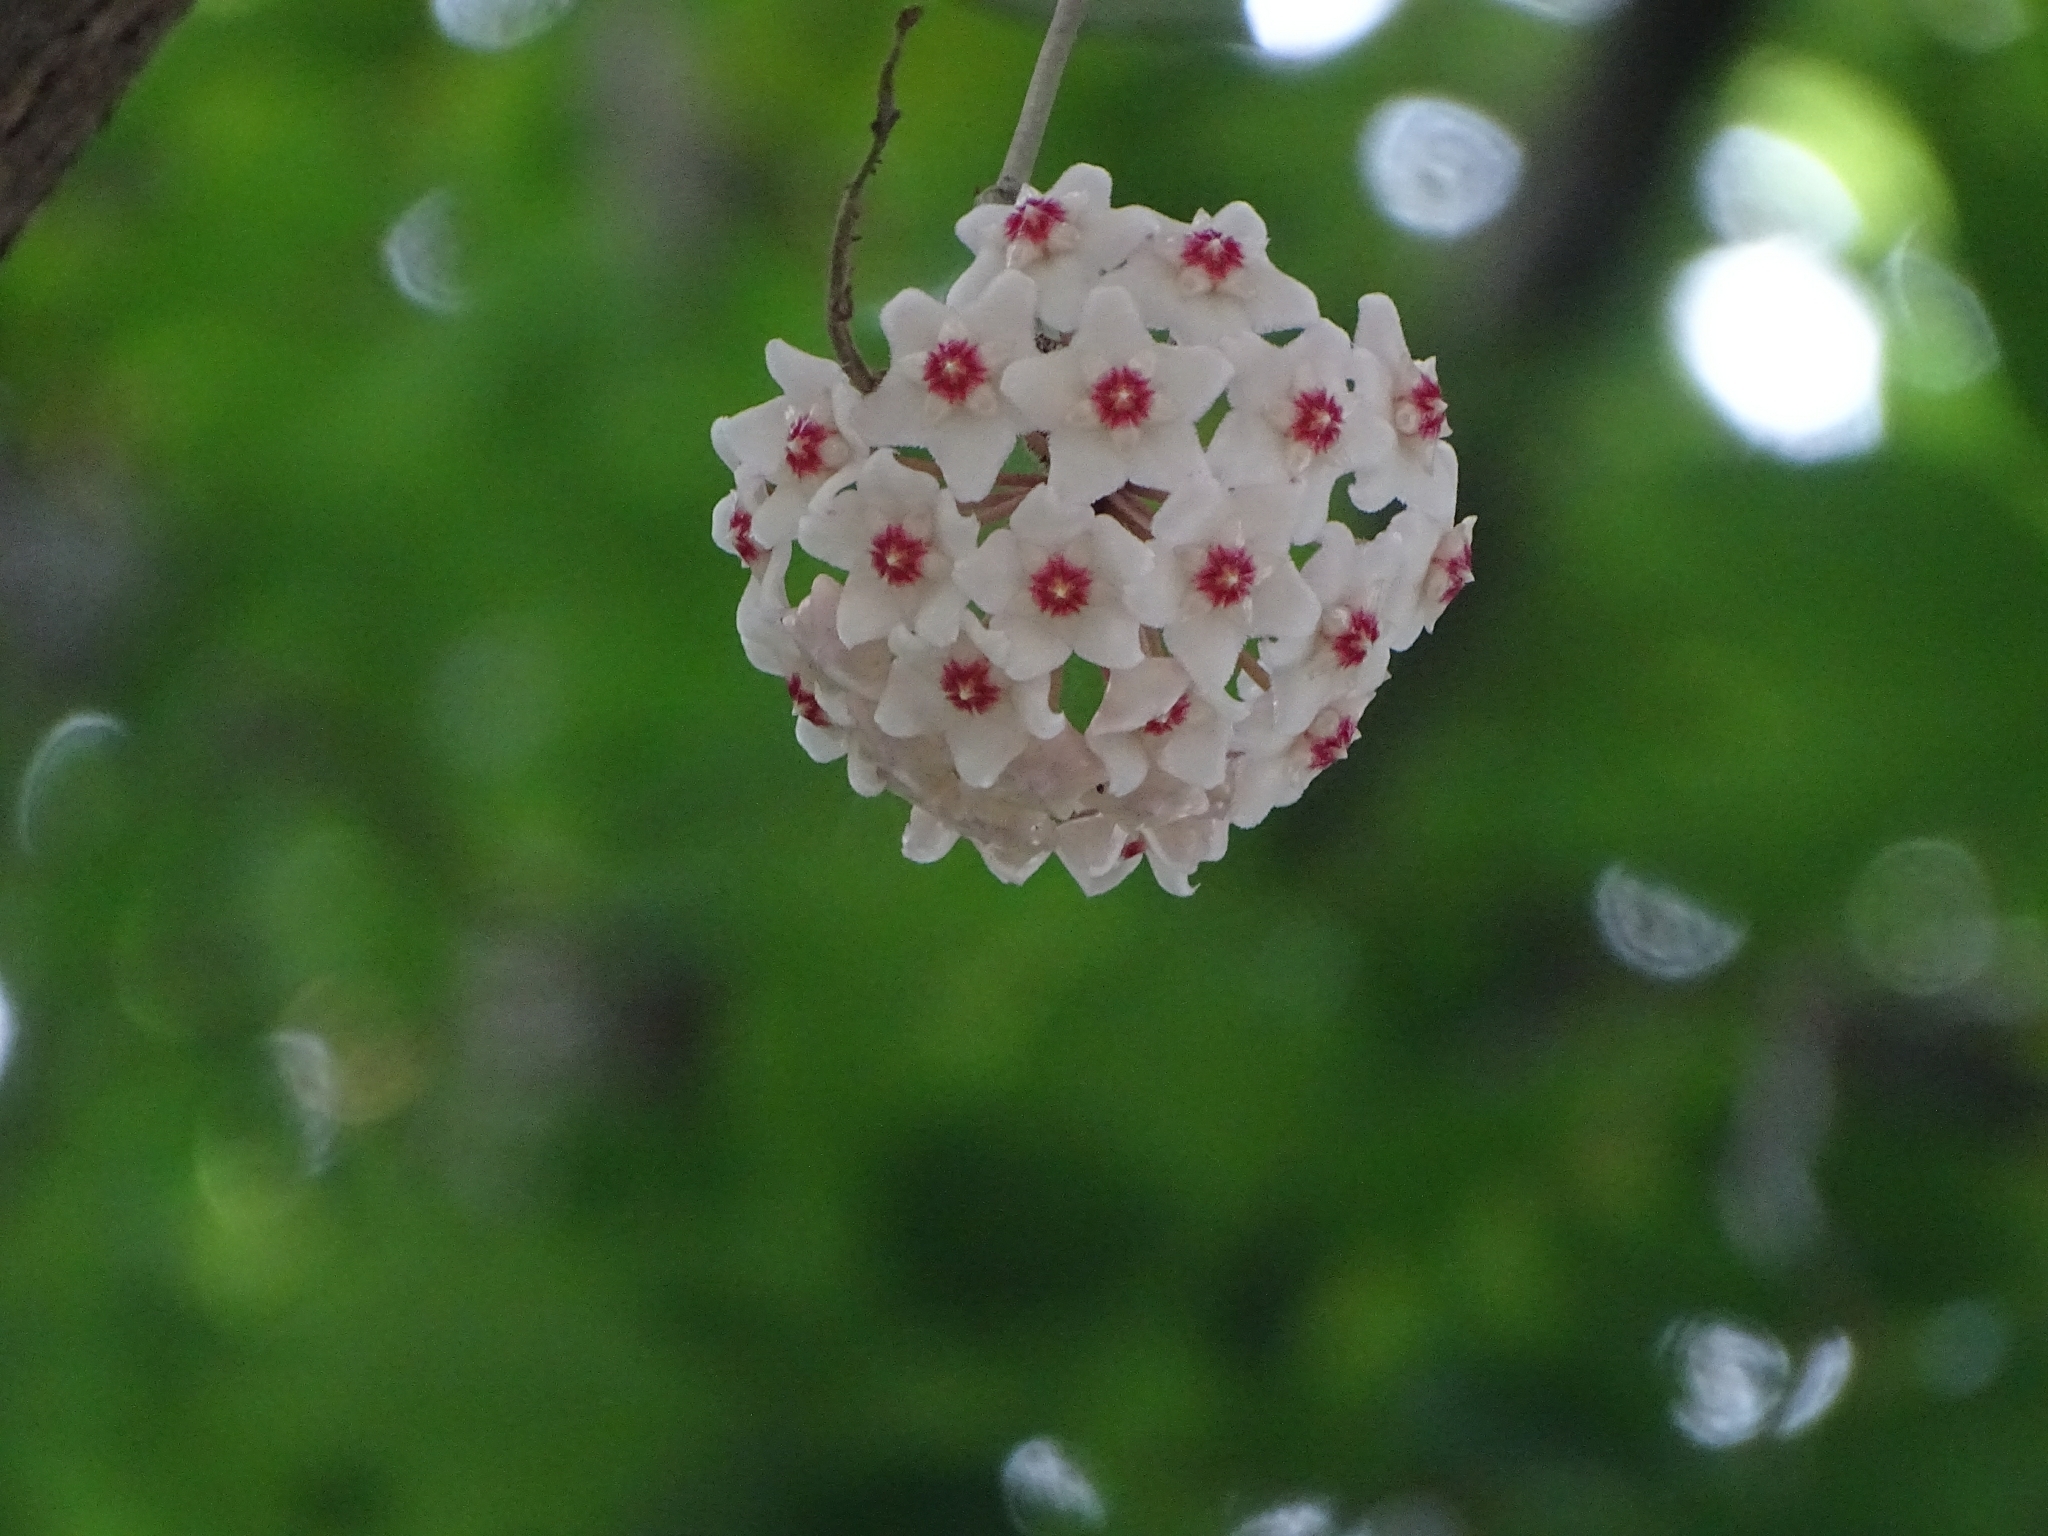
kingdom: Plantae
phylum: Tracheophyta
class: Magnoliopsida
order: Gentianales
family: Apocynaceae
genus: Hoya
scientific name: Hoya carnosa
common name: Honeyplant
